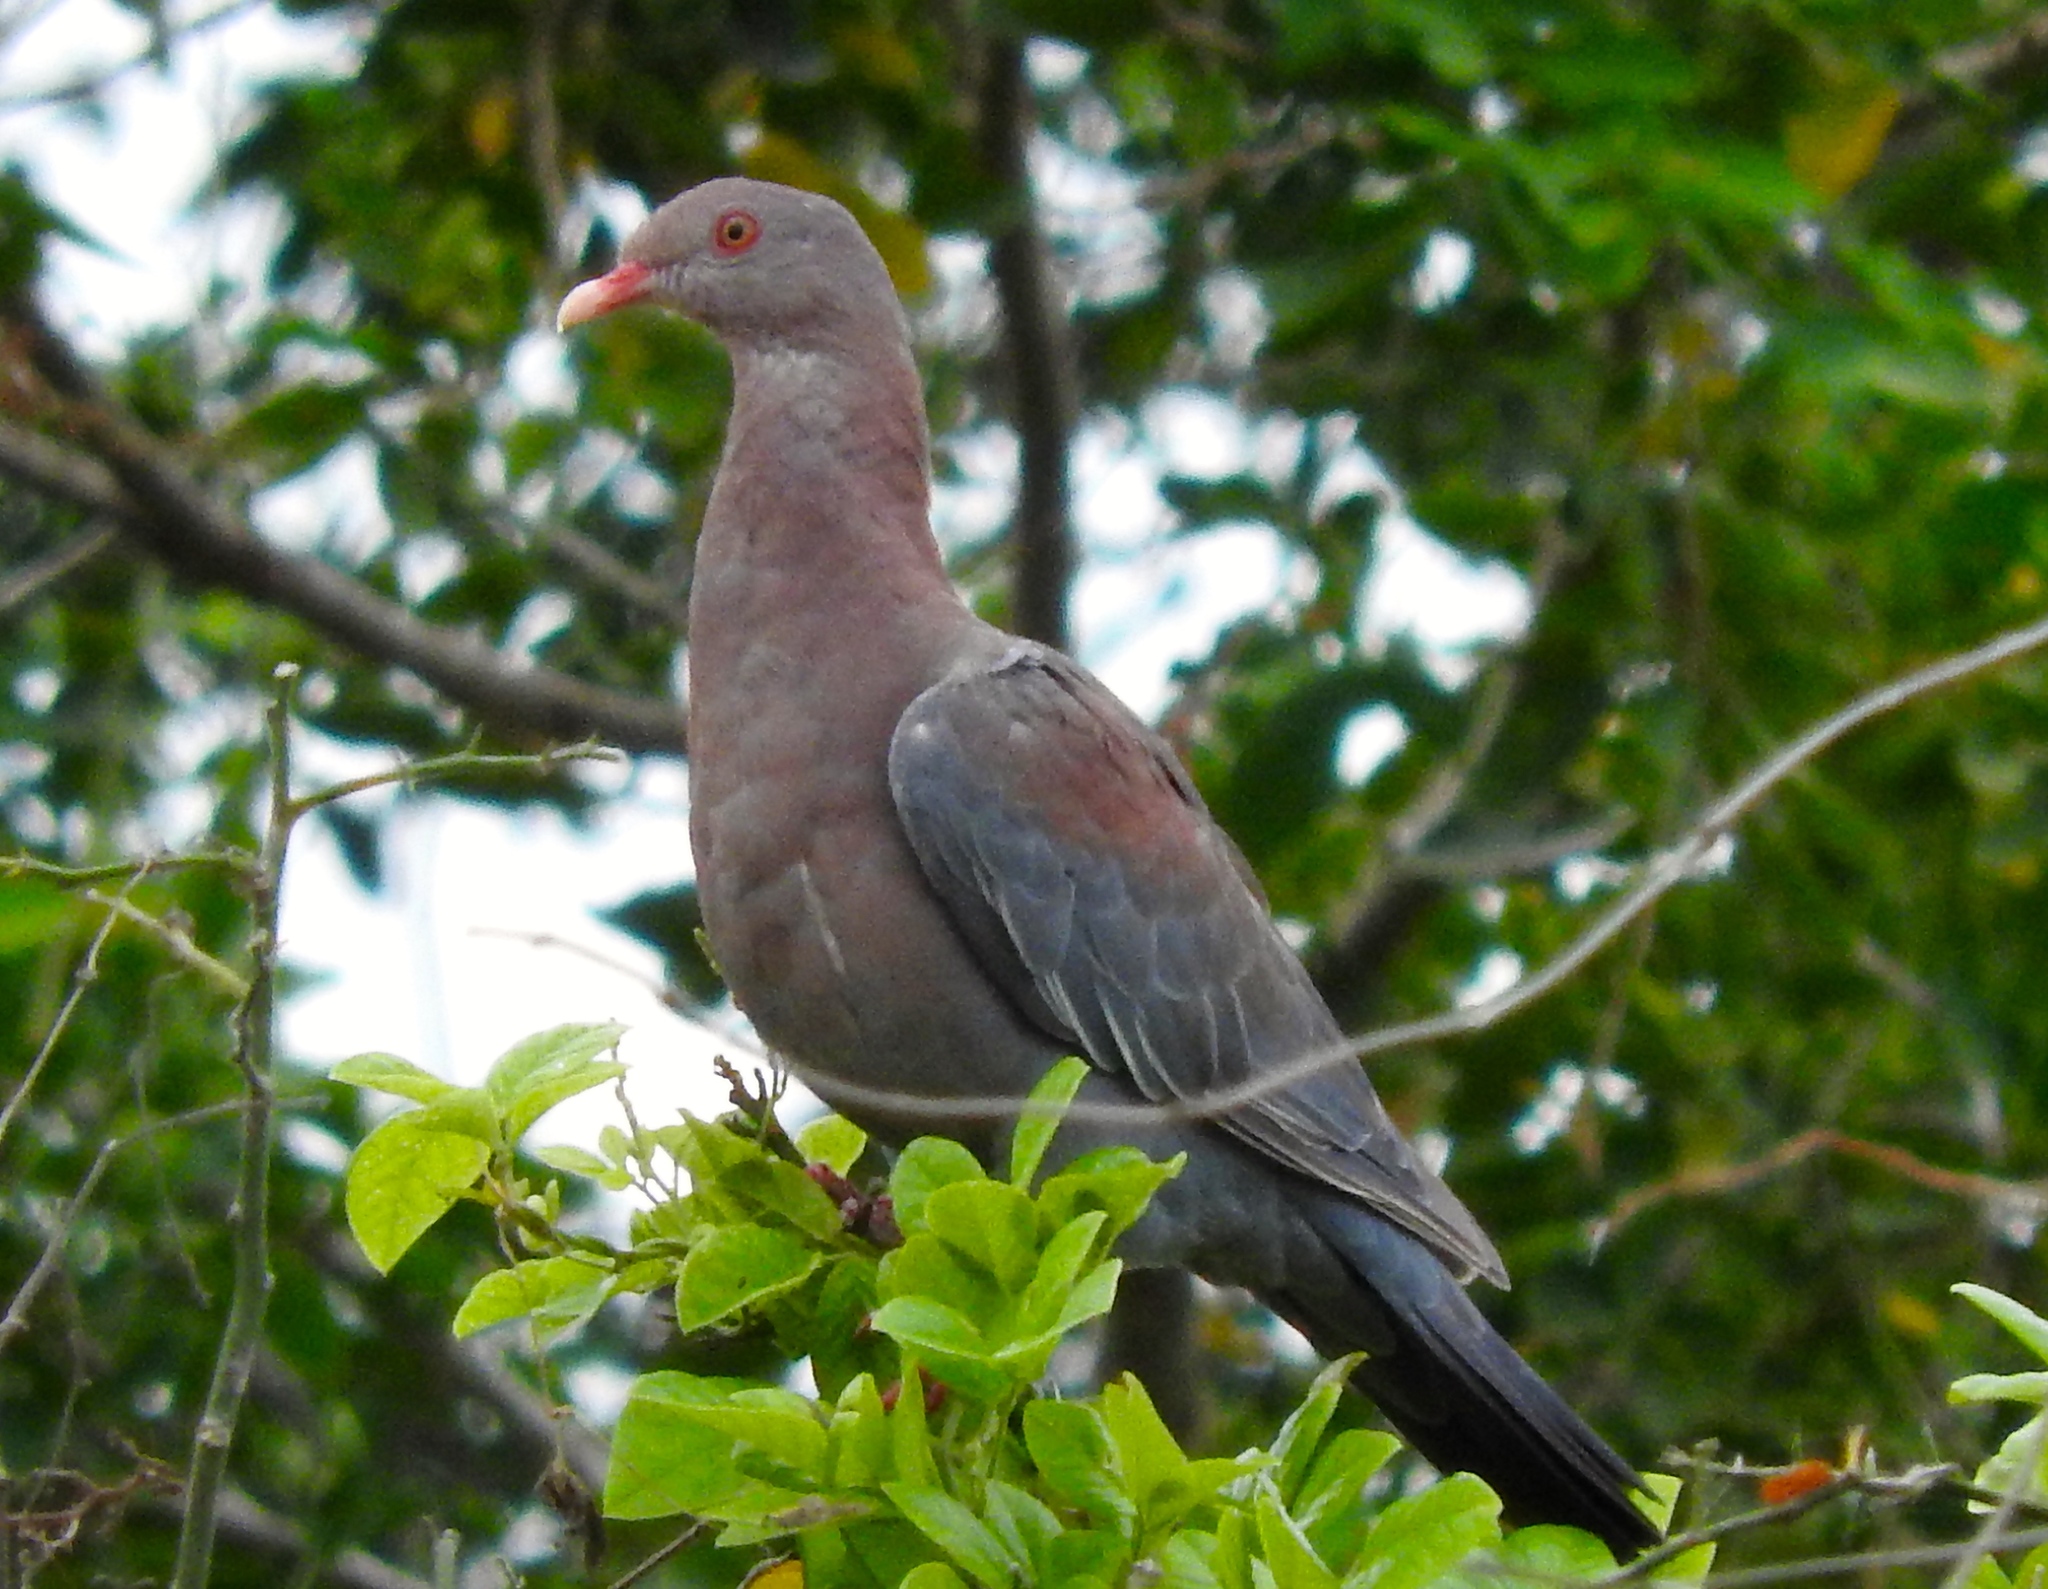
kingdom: Animalia
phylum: Chordata
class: Aves
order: Columbiformes
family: Columbidae
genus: Patagioenas
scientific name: Patagioenas flavirostris
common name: Red-billed pigeon
